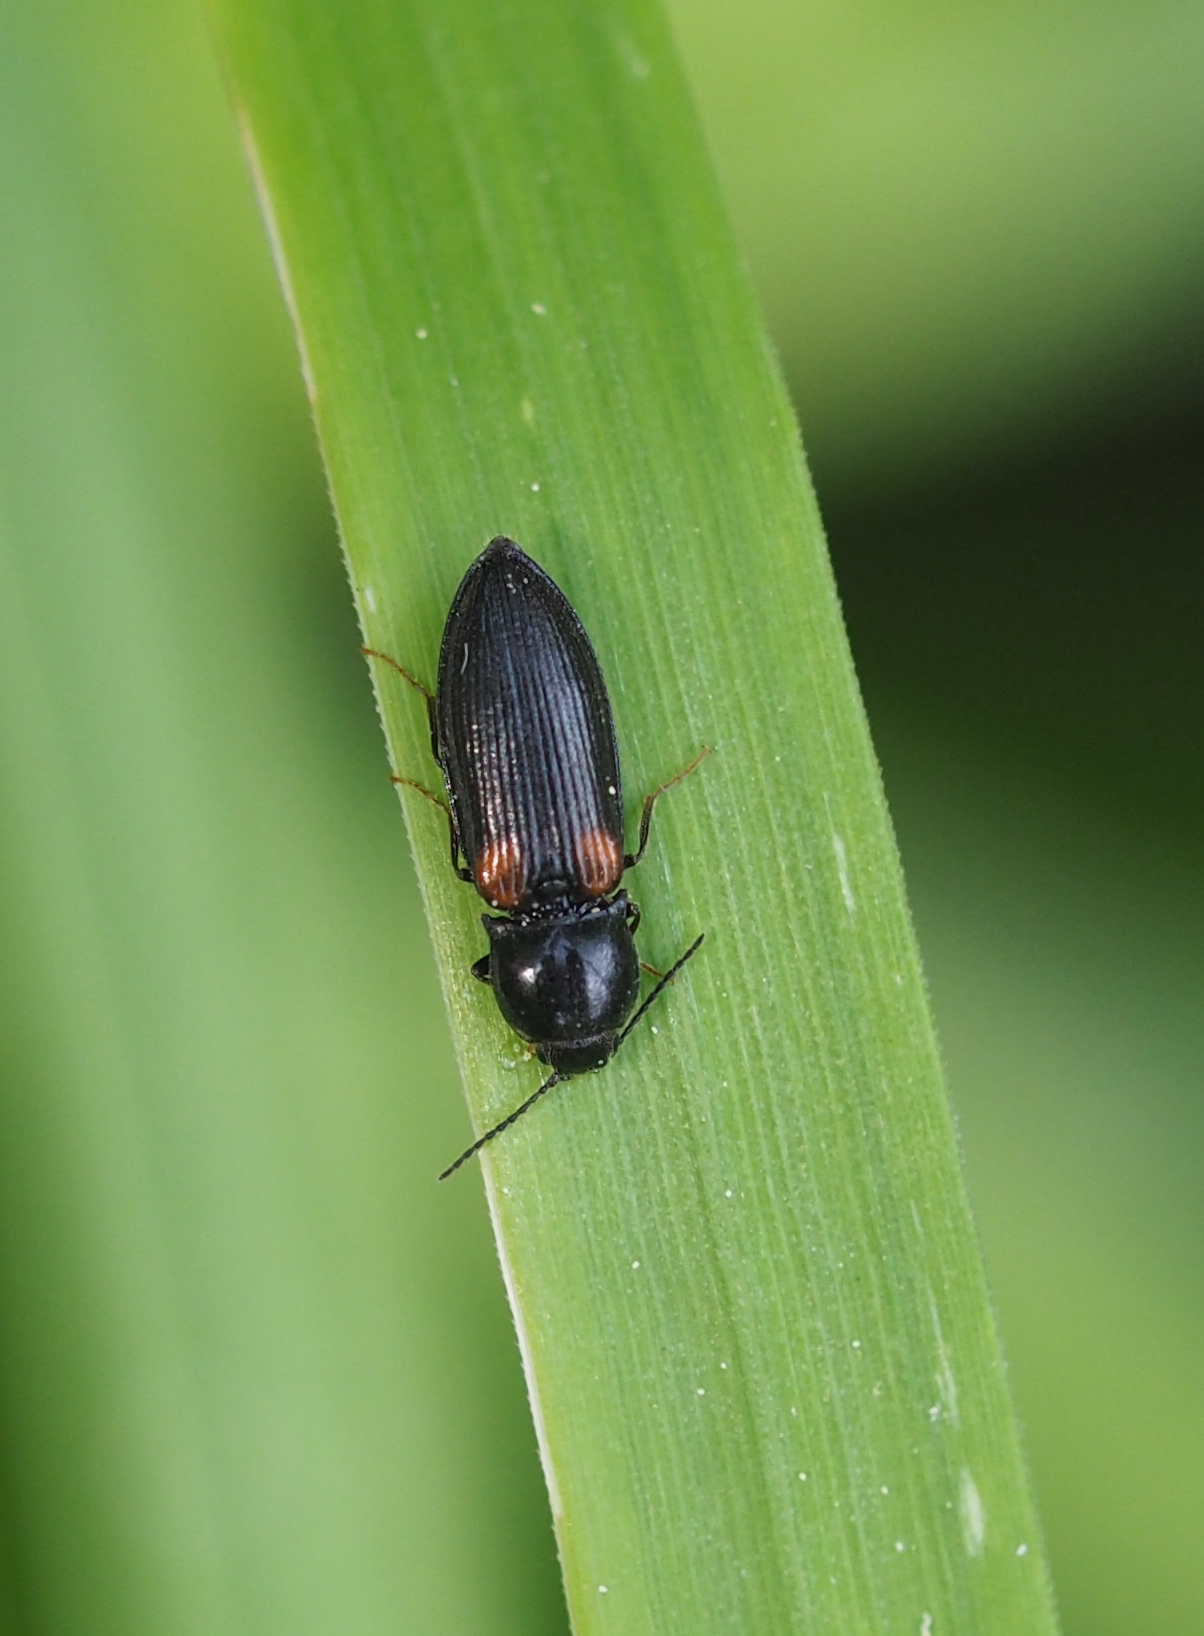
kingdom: Animalia
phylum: Arthropoda
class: Insecta
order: Coleoptera
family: Elateridae
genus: Calambus
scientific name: Calambus bipustulatus
